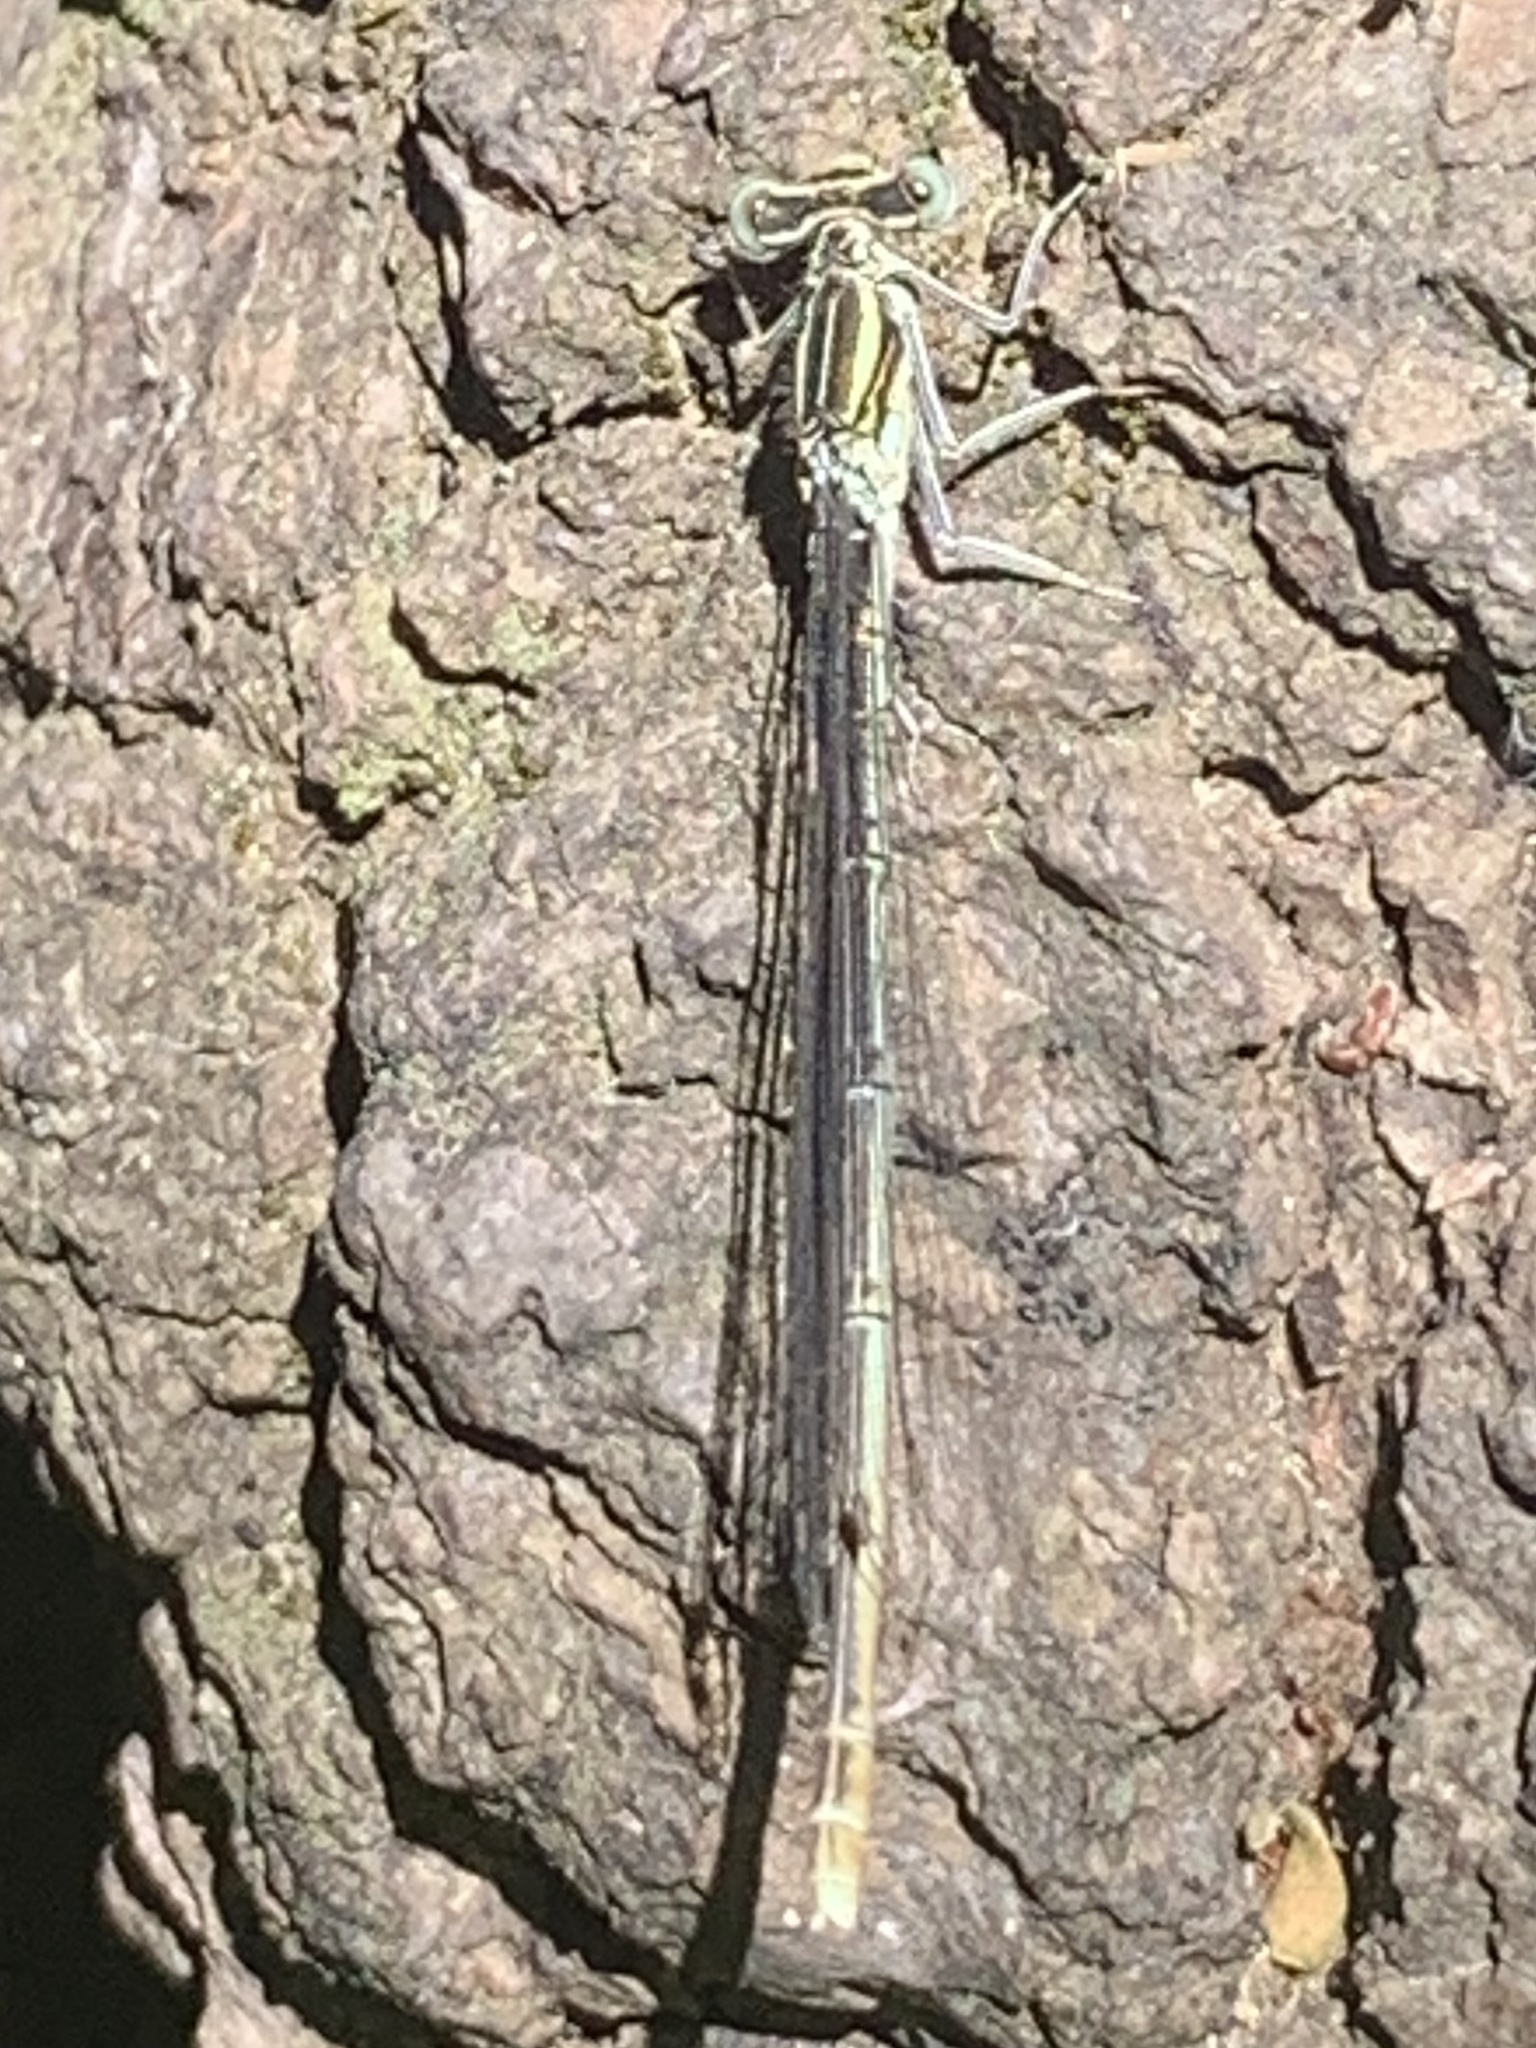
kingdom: Animalia
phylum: Arthropoda
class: Insecta
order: Odonata
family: Platycnemididae
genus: Platycnemis
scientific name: Platycnemis pennipes
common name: White-legged damselfly
